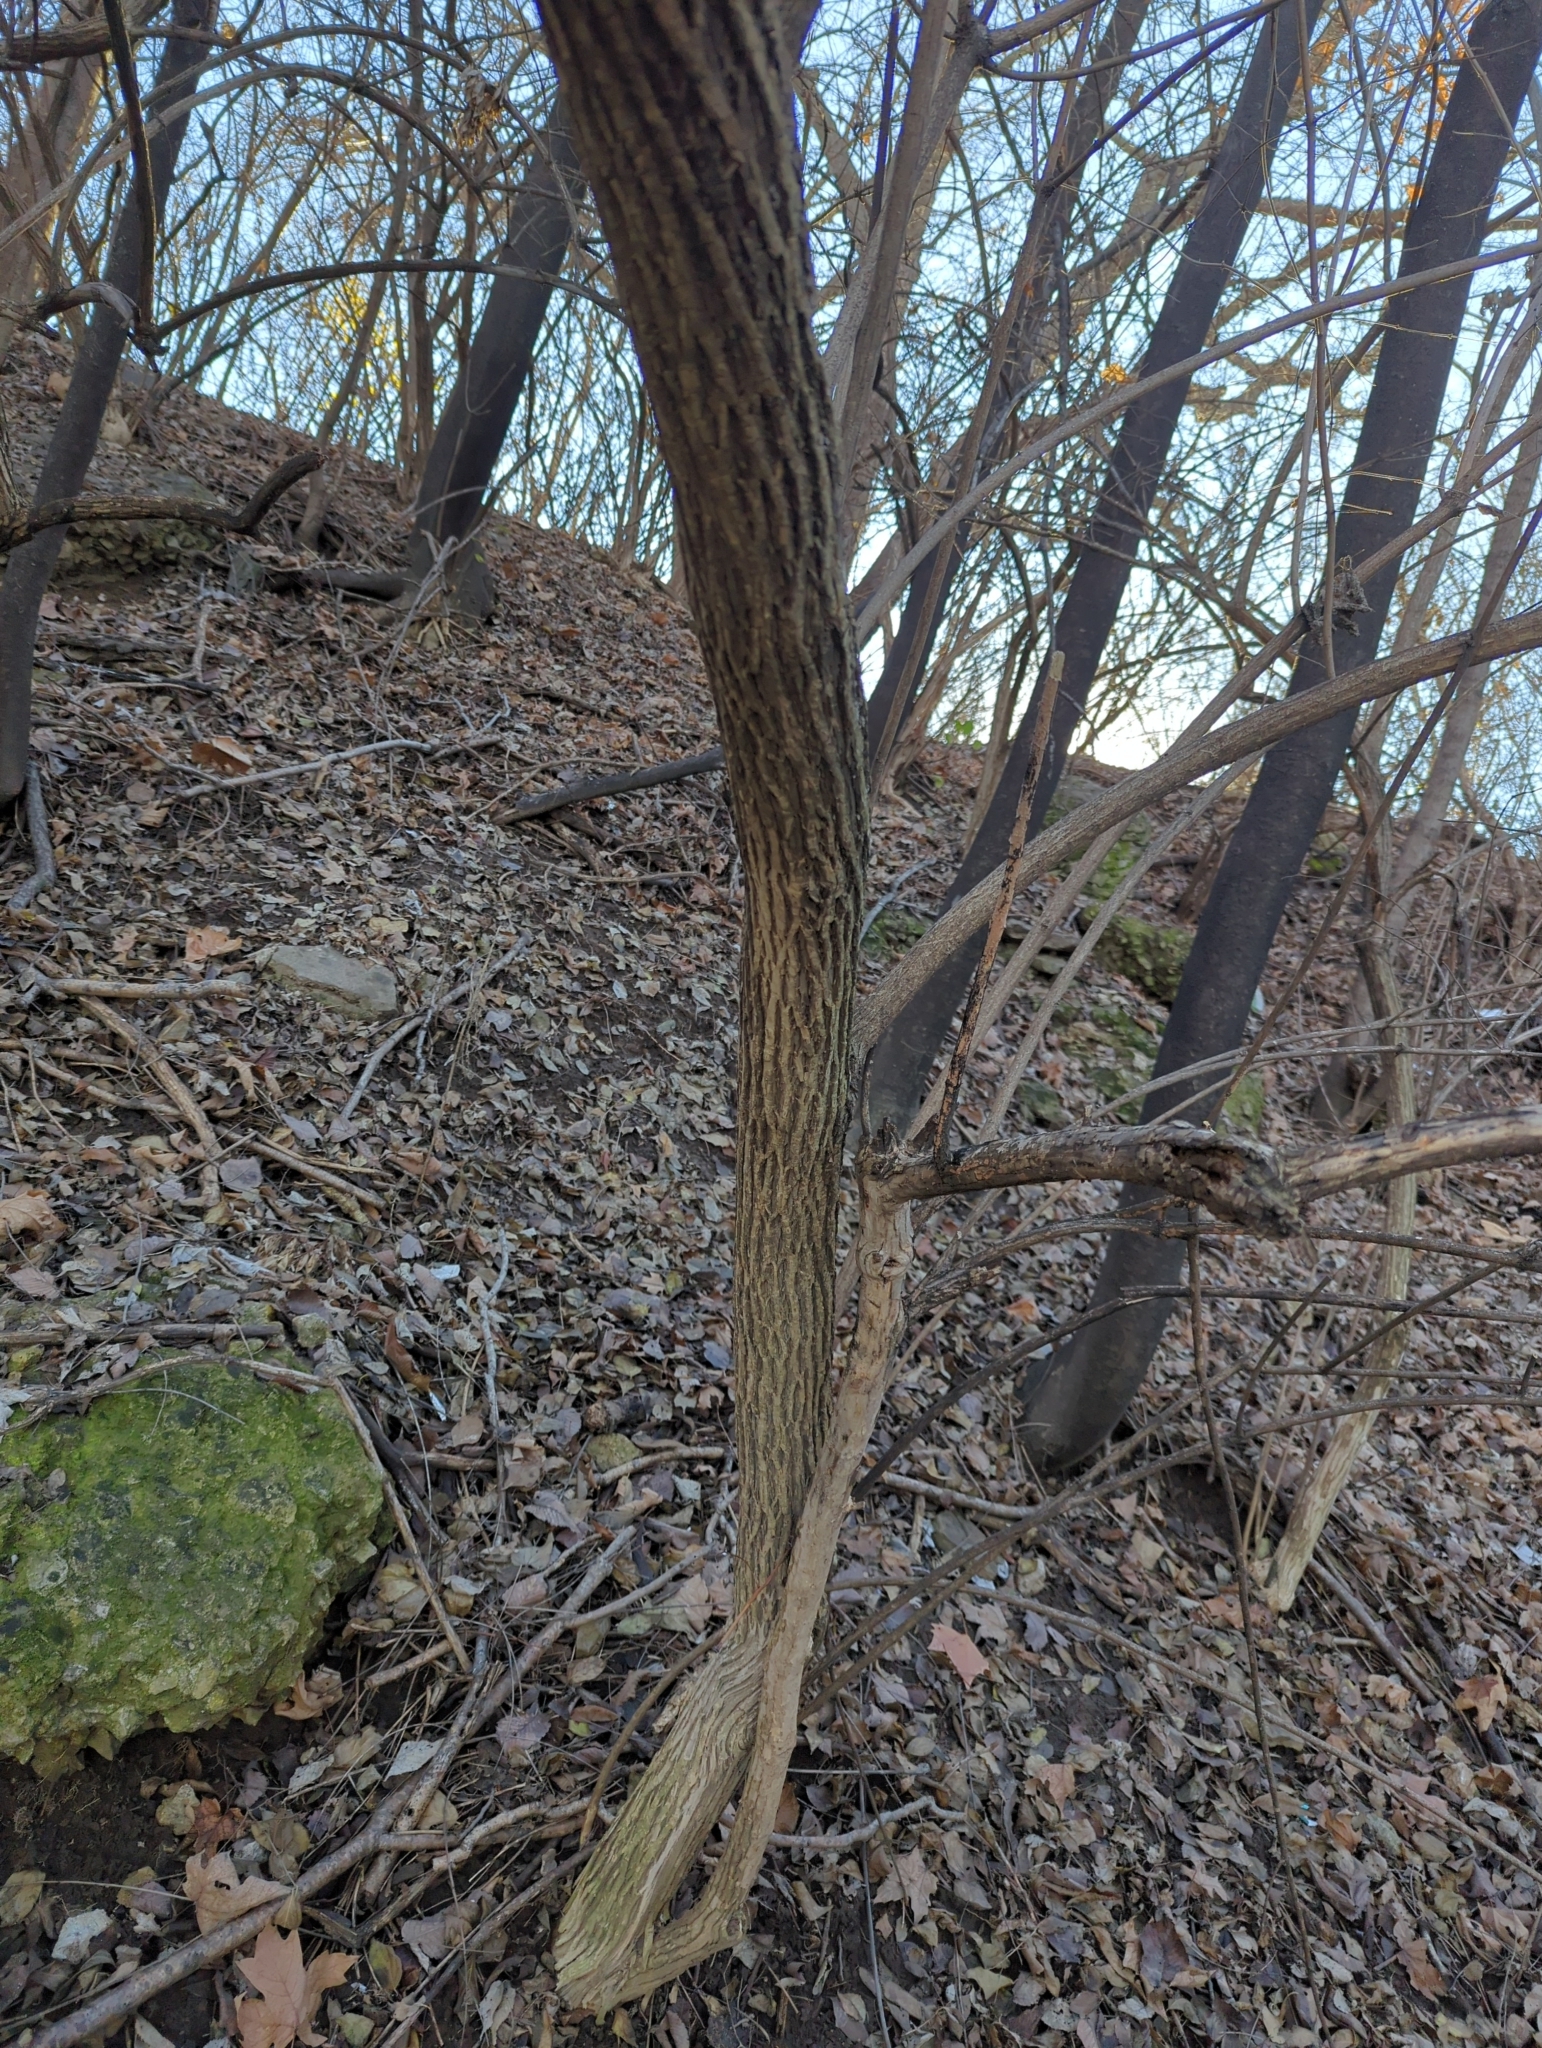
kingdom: Plantae
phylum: Tracheophyta
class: Magnoliopsida
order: Dipsacales
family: Caprifoliaceae
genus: Lonicera
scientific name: Lonicera maackii
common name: Amur honeysuckle
